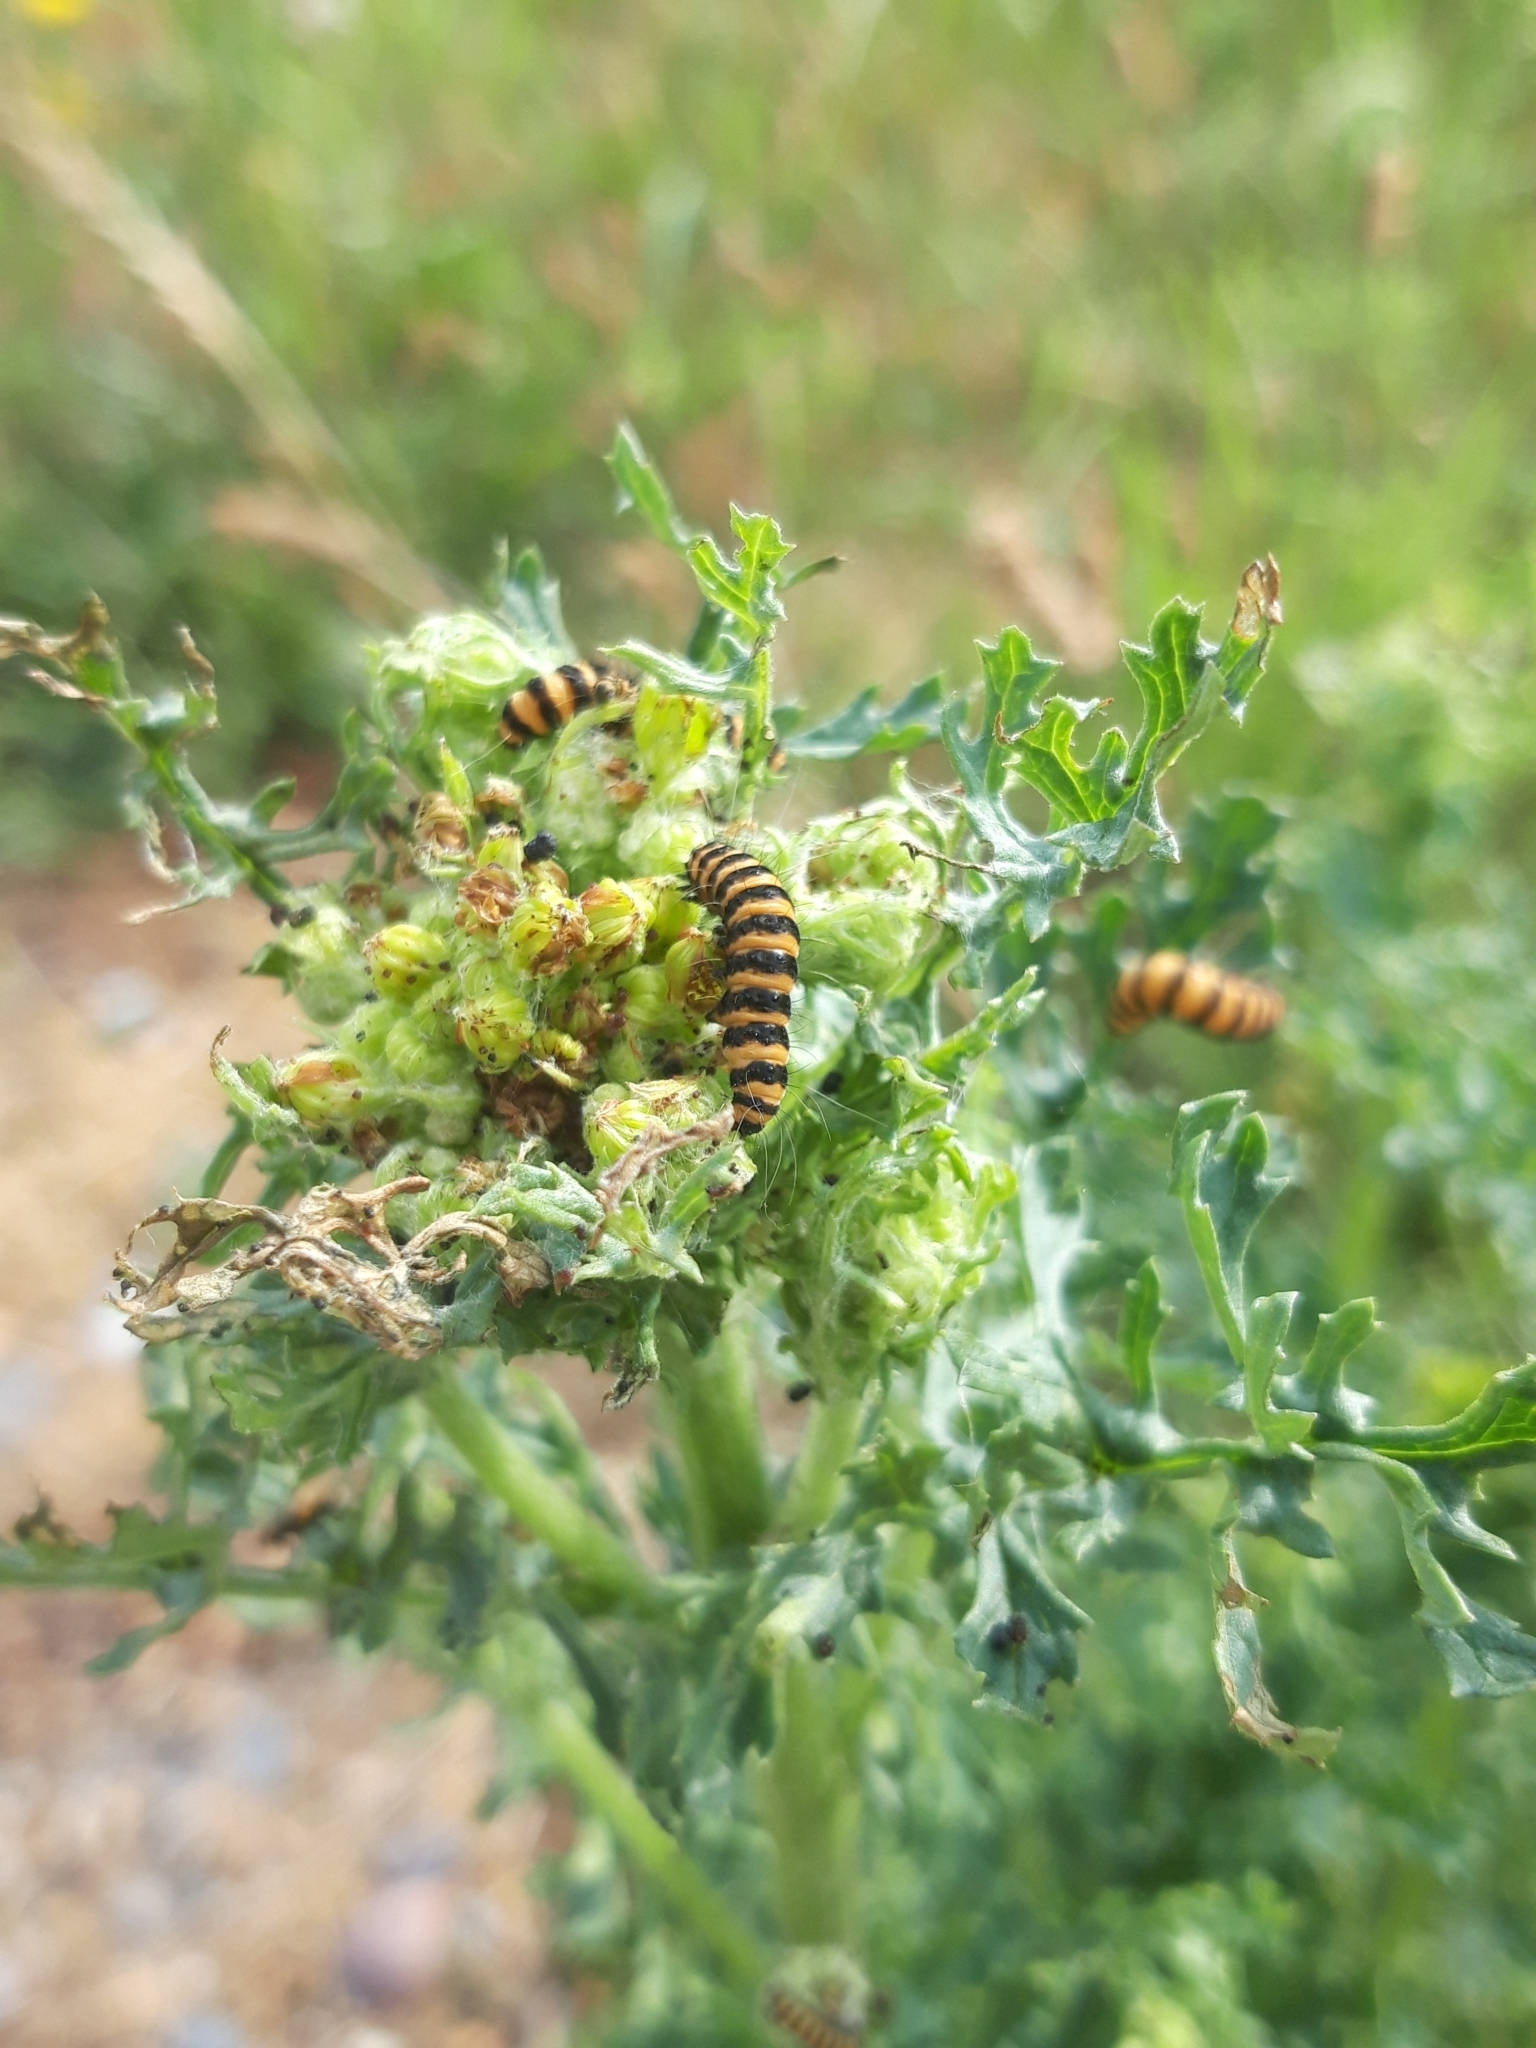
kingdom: Animalia
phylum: Arthropoda
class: Insecta
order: Lepidoptera
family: Erebidae
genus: Tyria
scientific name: Tyria jacobaeae
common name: Cinnabar
